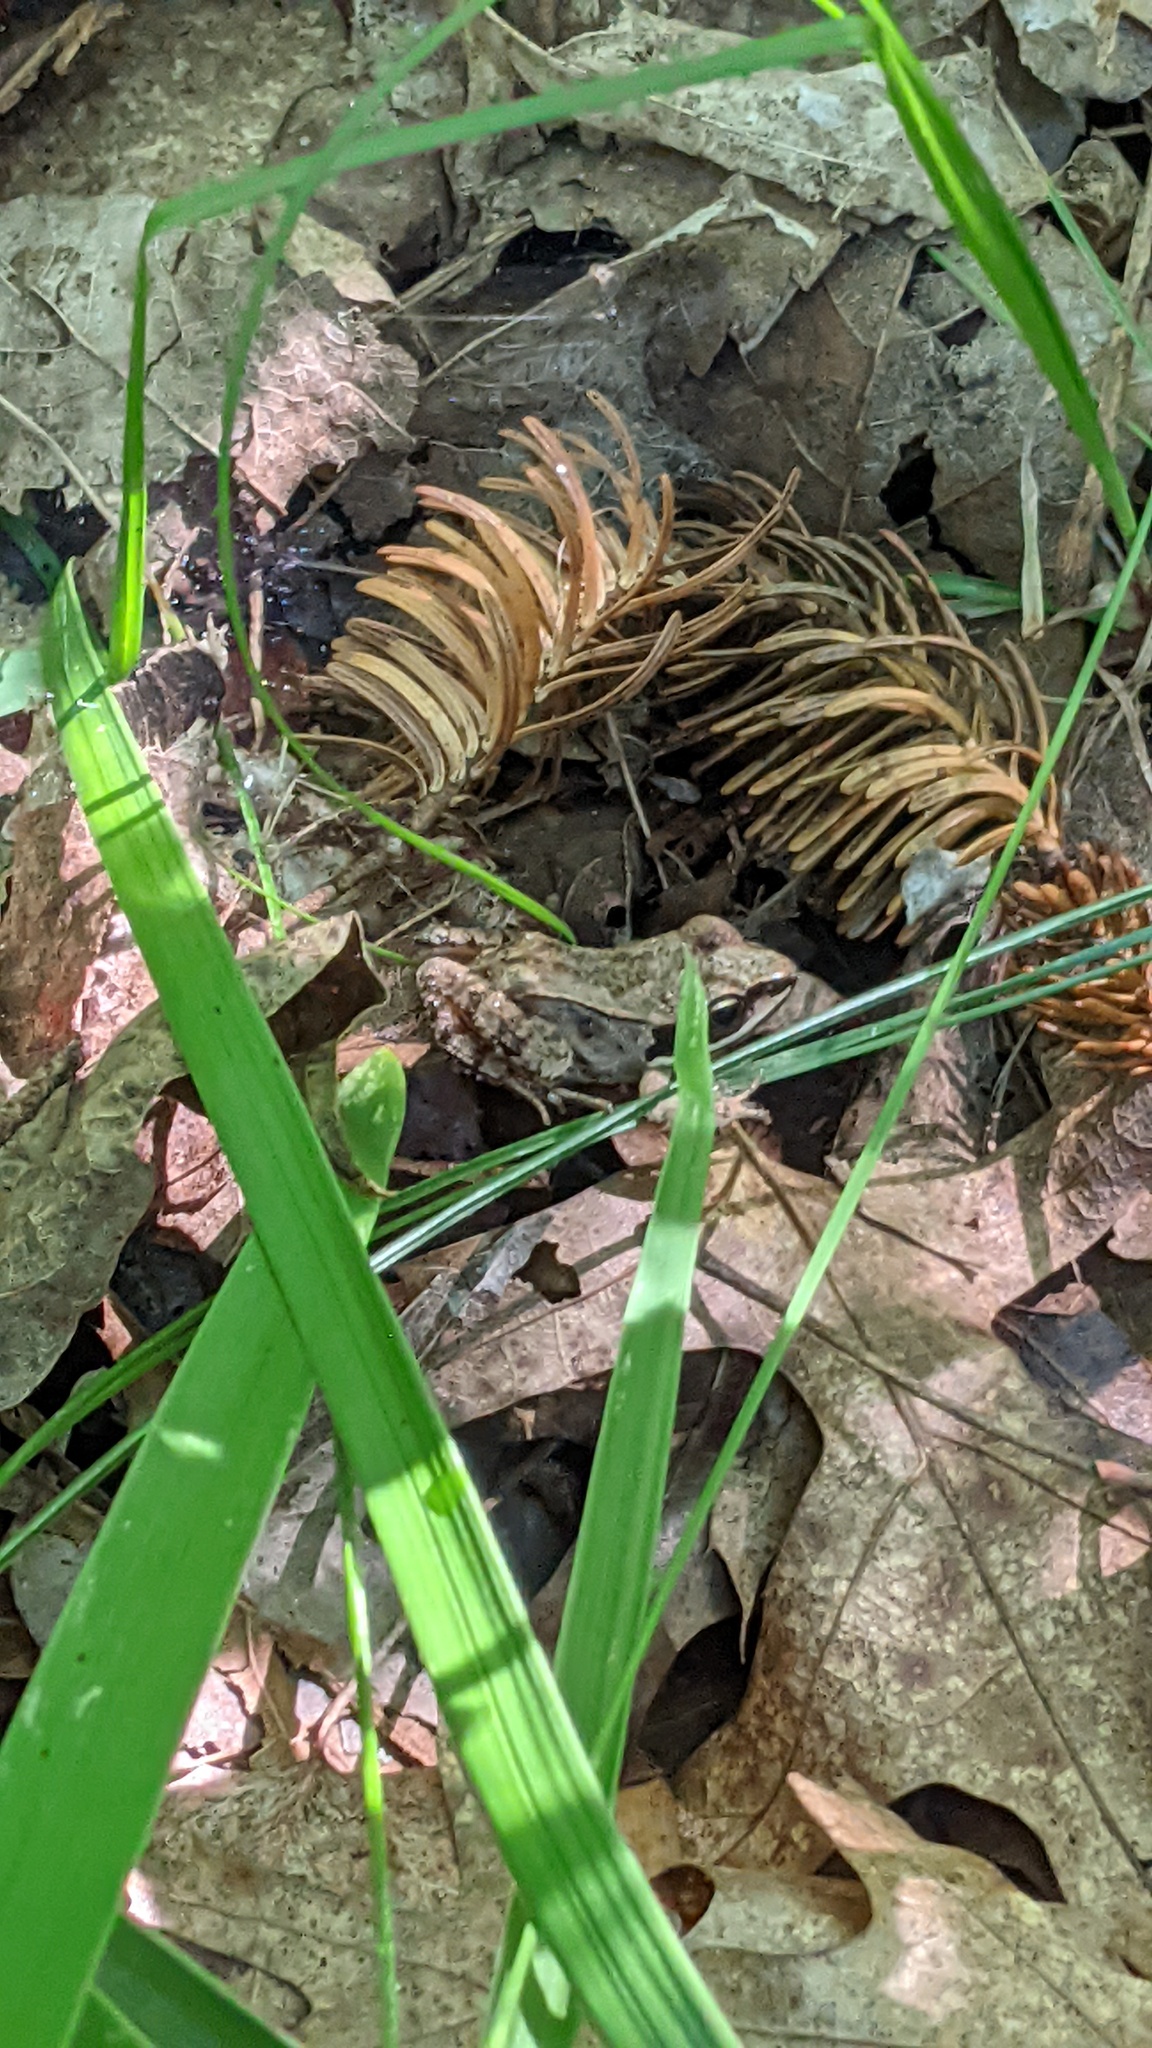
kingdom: Animalia
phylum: Chordata
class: Amphibia
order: Anura
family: Ranidae
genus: Lithobates
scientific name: Lithobates sylvaticus
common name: Wood frog
